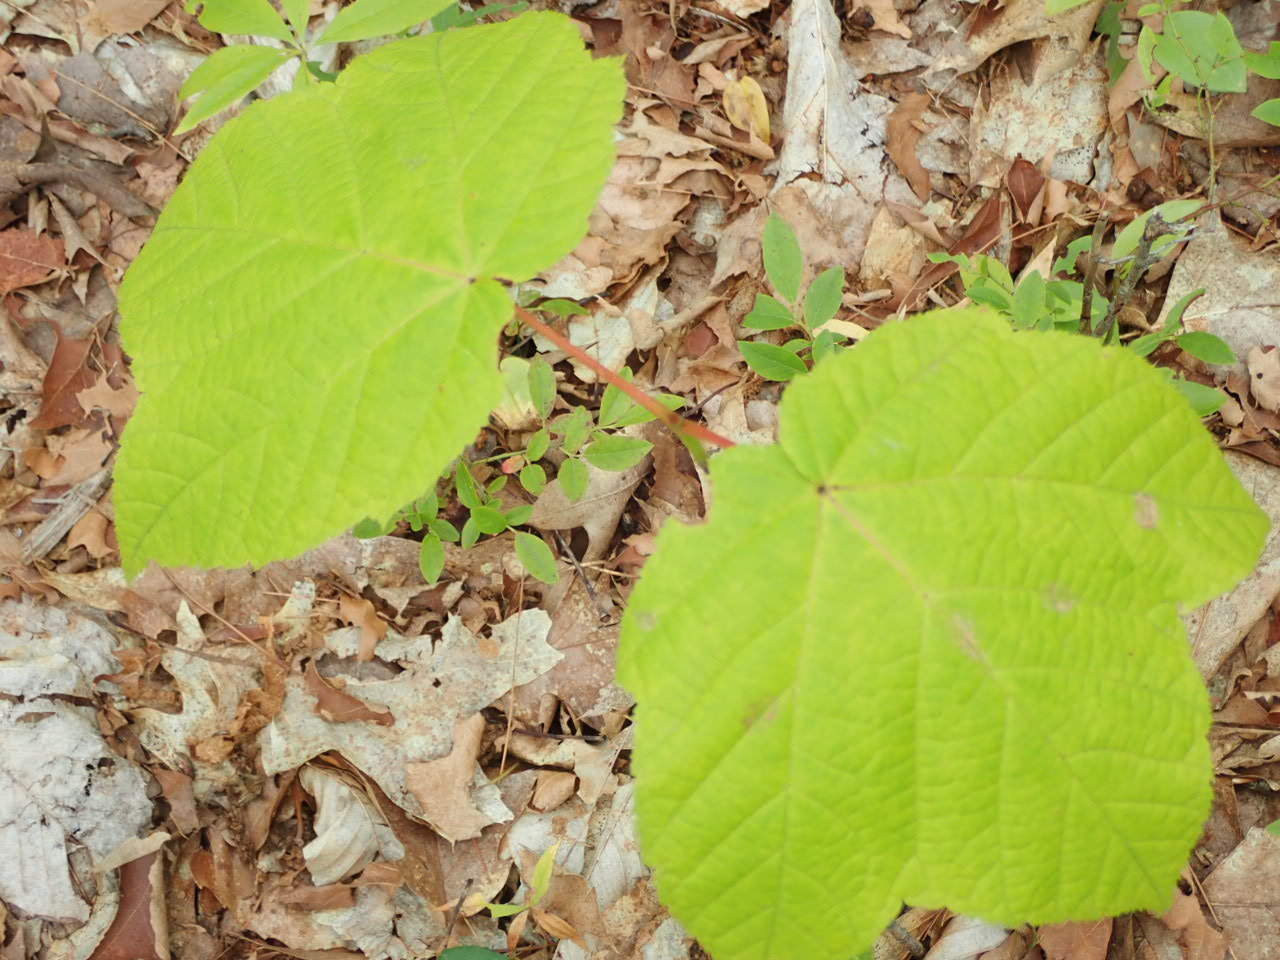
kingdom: Plantae
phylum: Tracheophyta
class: Magnoliopsida
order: Sapindales
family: Sapindaceae
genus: Acer
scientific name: Acer pensylvanicum
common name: Moosewood
